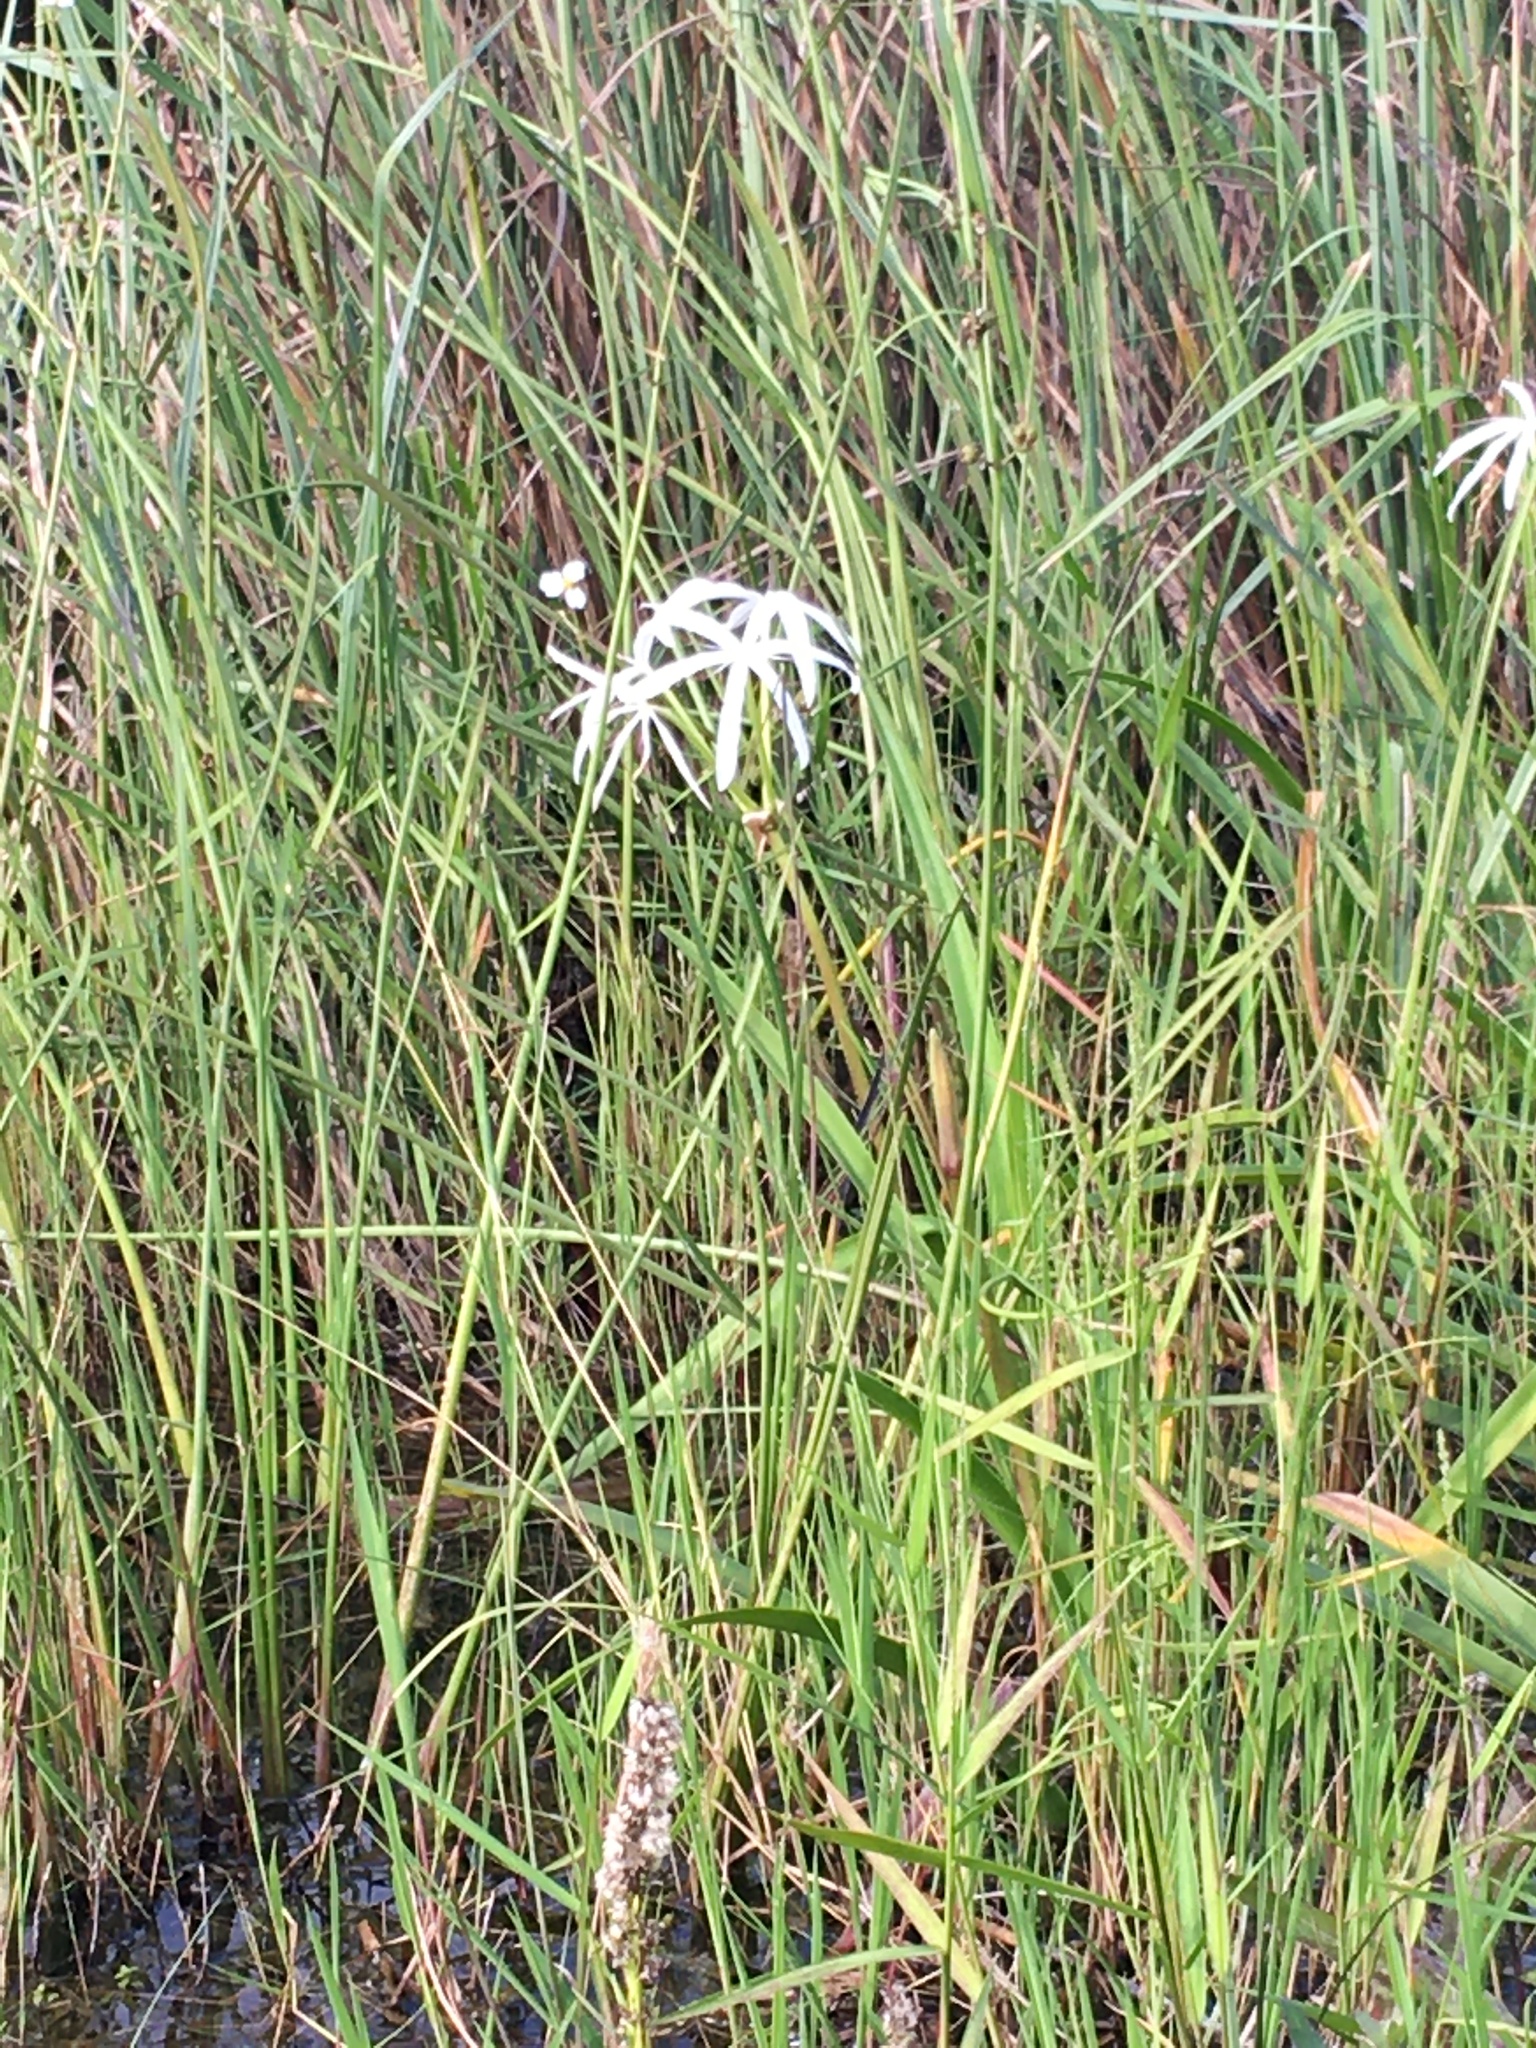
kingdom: Plantae
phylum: Tracheophyta
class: Liliopsida
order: Asparagales
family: Amaryllidaceae
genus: Crinum
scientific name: Crinum americanum
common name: Florida swamp-lily
